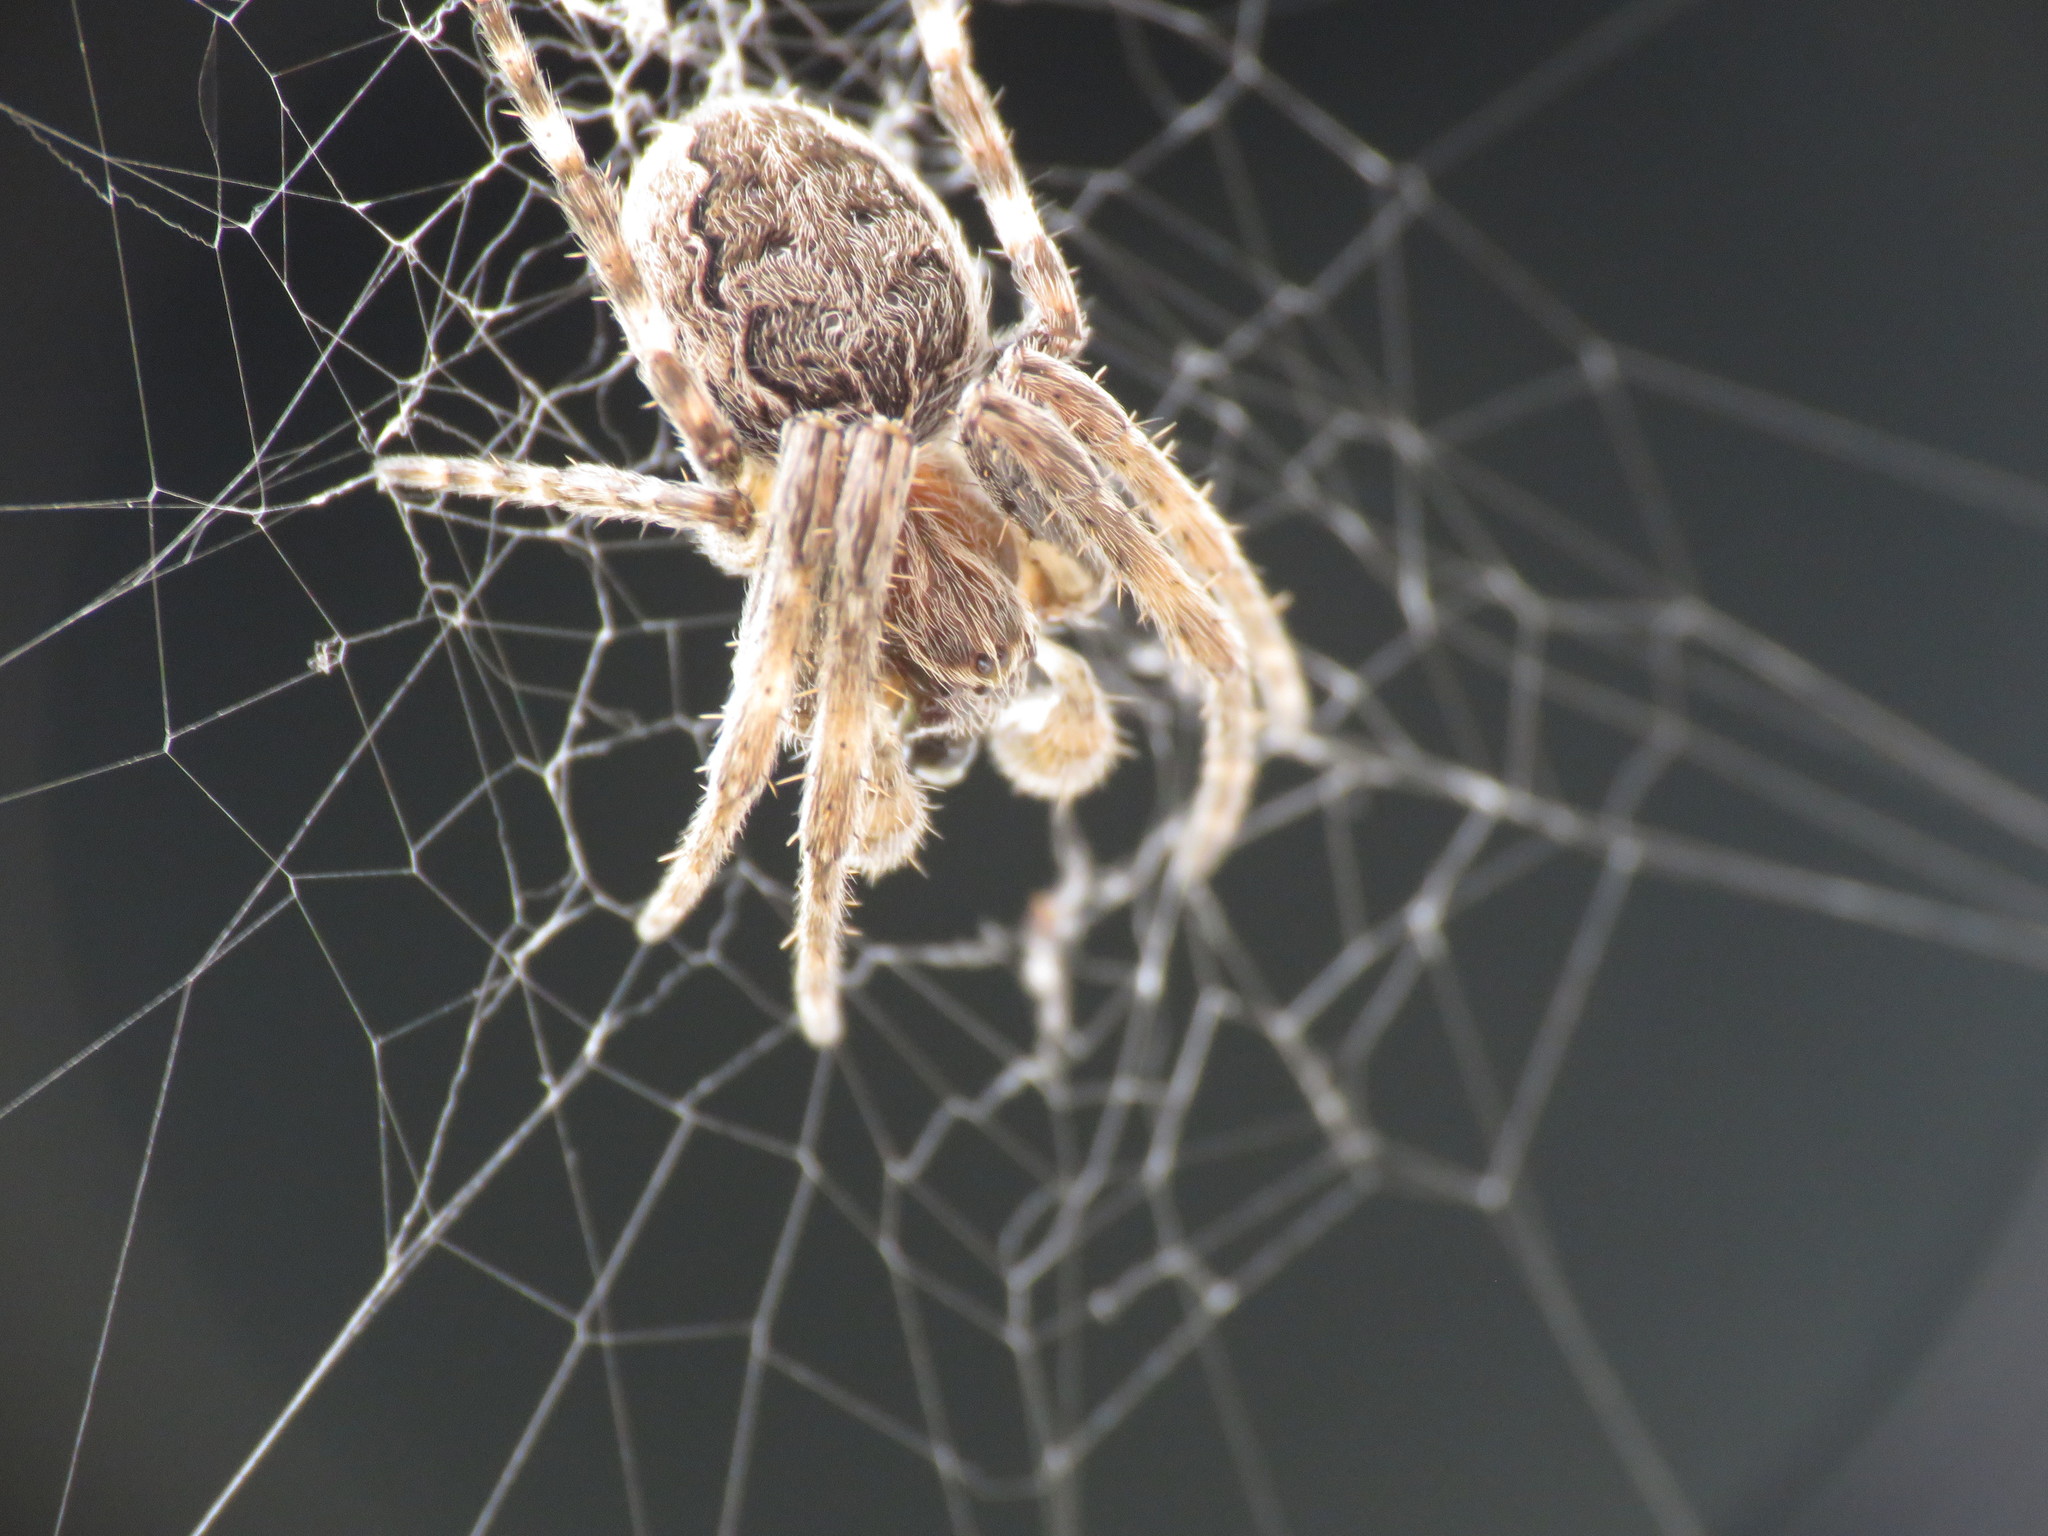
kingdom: Animalia
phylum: Arthropoda
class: Arachnida
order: Araneae
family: Araneidae
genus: Larinioides
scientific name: Larinioides sclopetarius
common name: Bridge orbweaver
